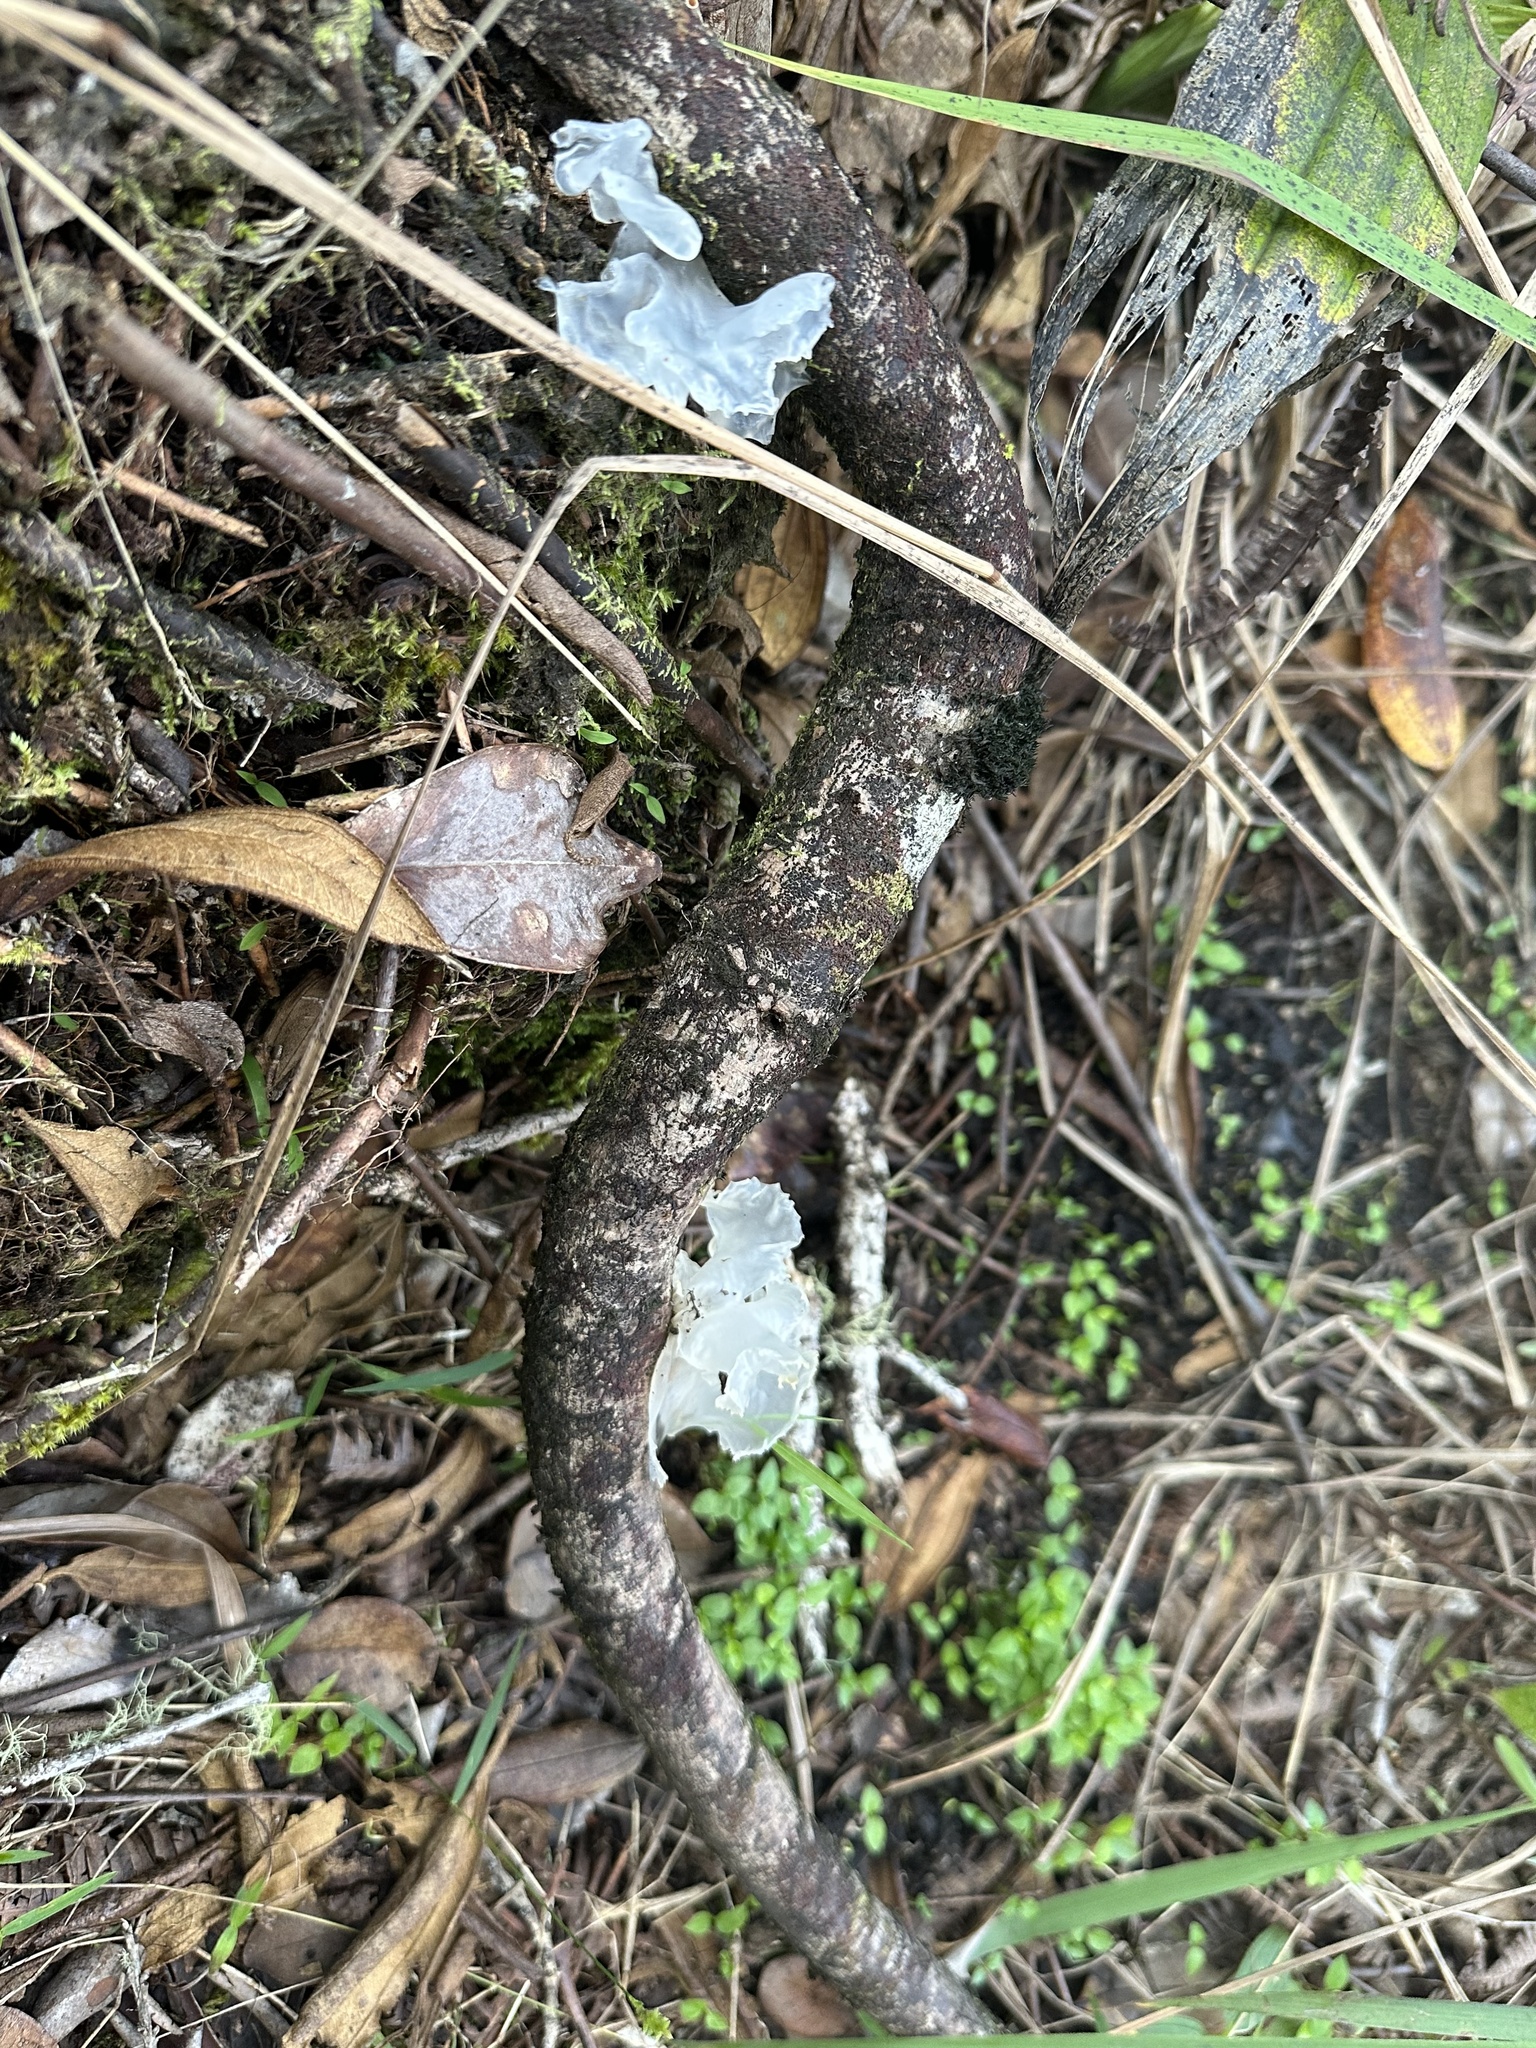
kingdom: Fungi
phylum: Basidiomycota
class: Tremellomycetes
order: Tremellales
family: Tremellaceae
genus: Tremella
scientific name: Tremella fuciformis
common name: Snow fungus
